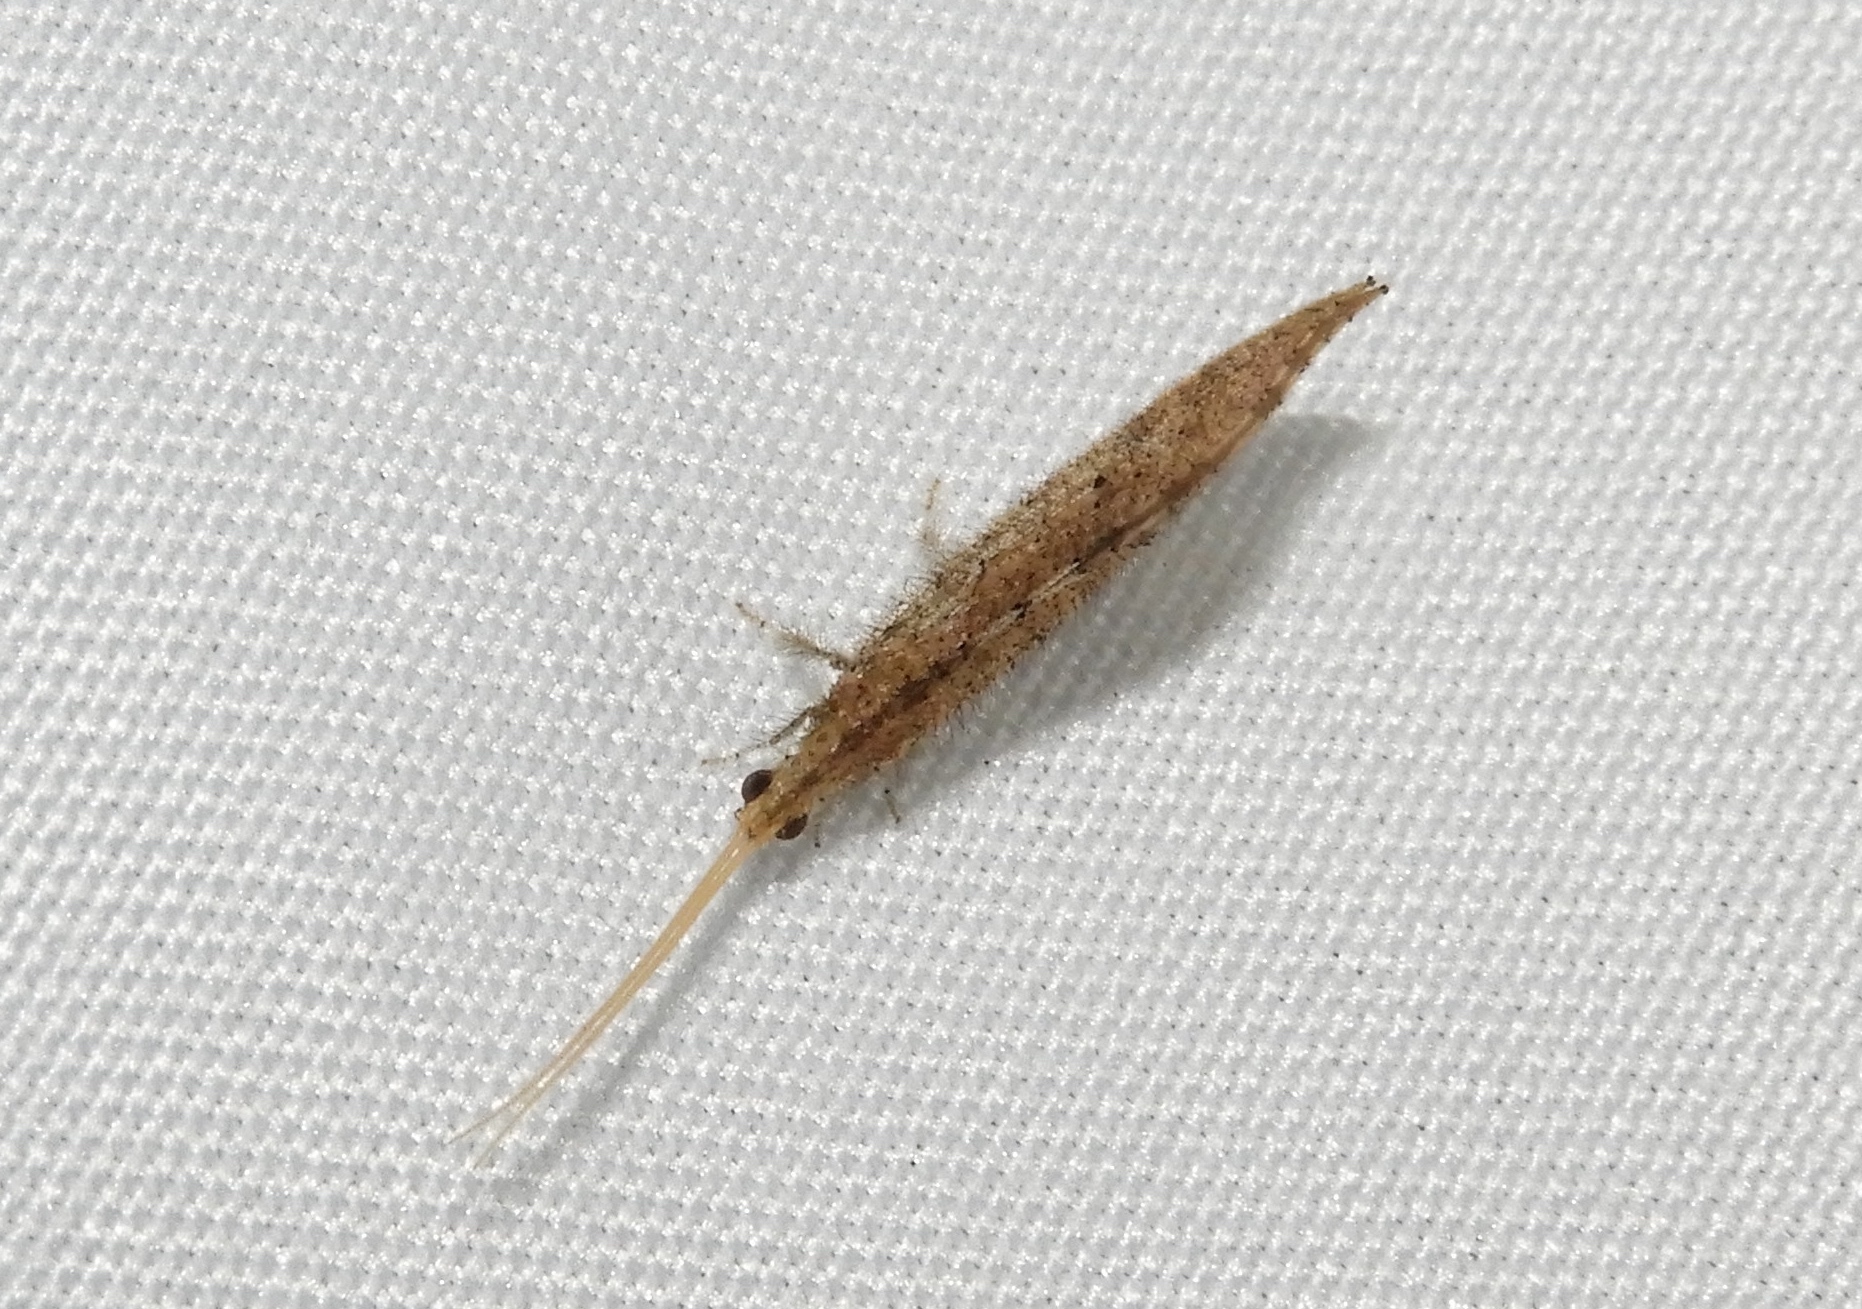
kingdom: Animalia
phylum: Arthropoda
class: Insecta
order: Neuroptera
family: Berothidae
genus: Lomamyia
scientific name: Lomamyia
